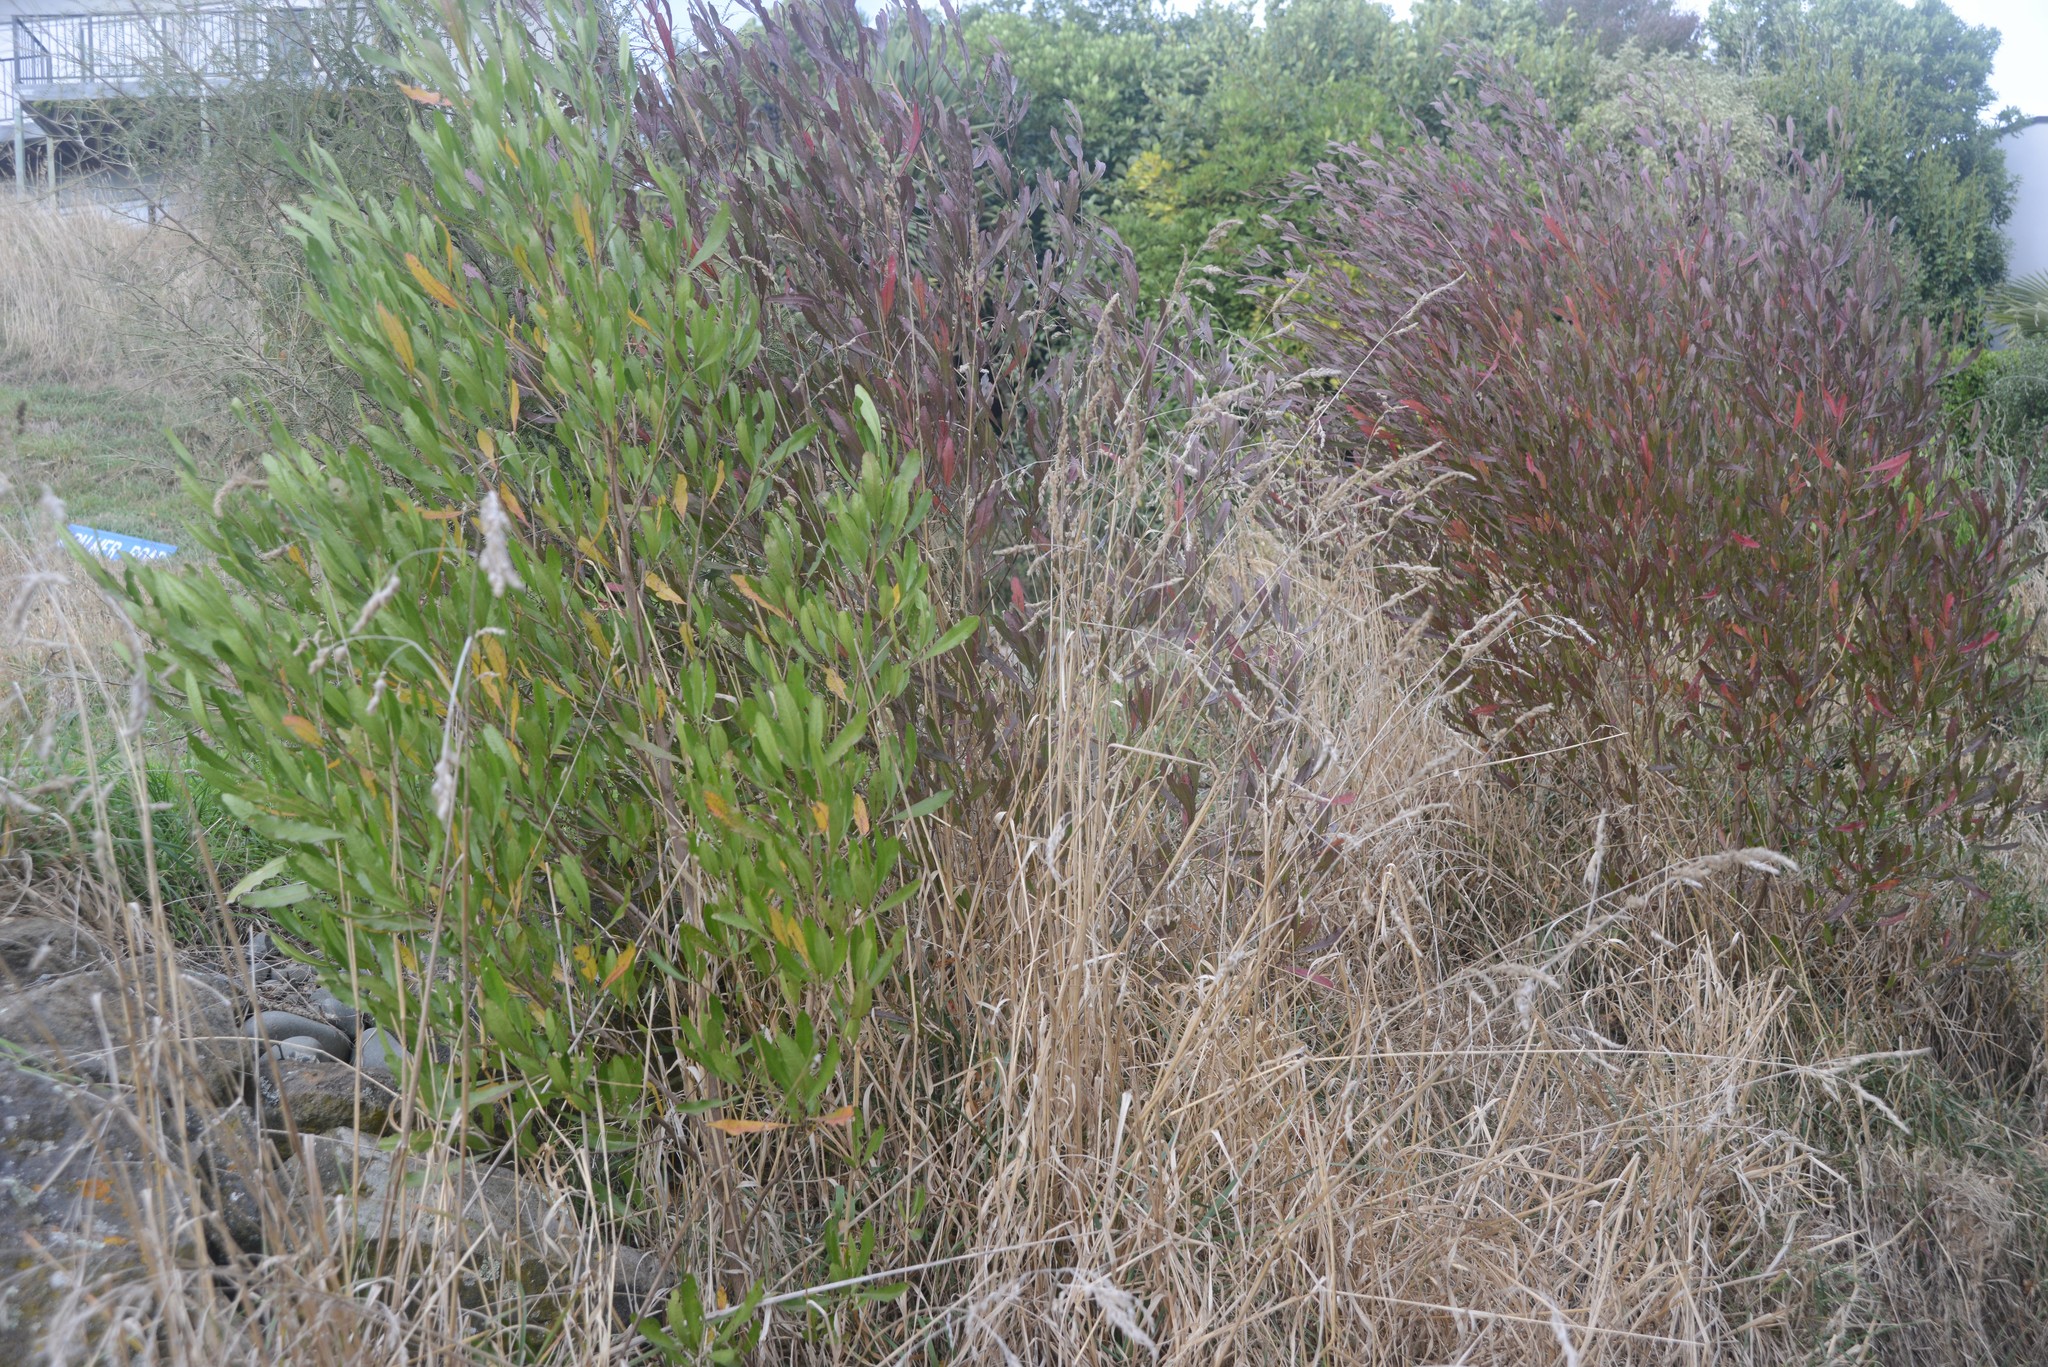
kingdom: Plantae
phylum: Tracheophyta
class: Magnoliopsida
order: Sapindales
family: Sapindaceae
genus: Dodonaea
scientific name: Dodonaea viscosa
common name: Hopbush
